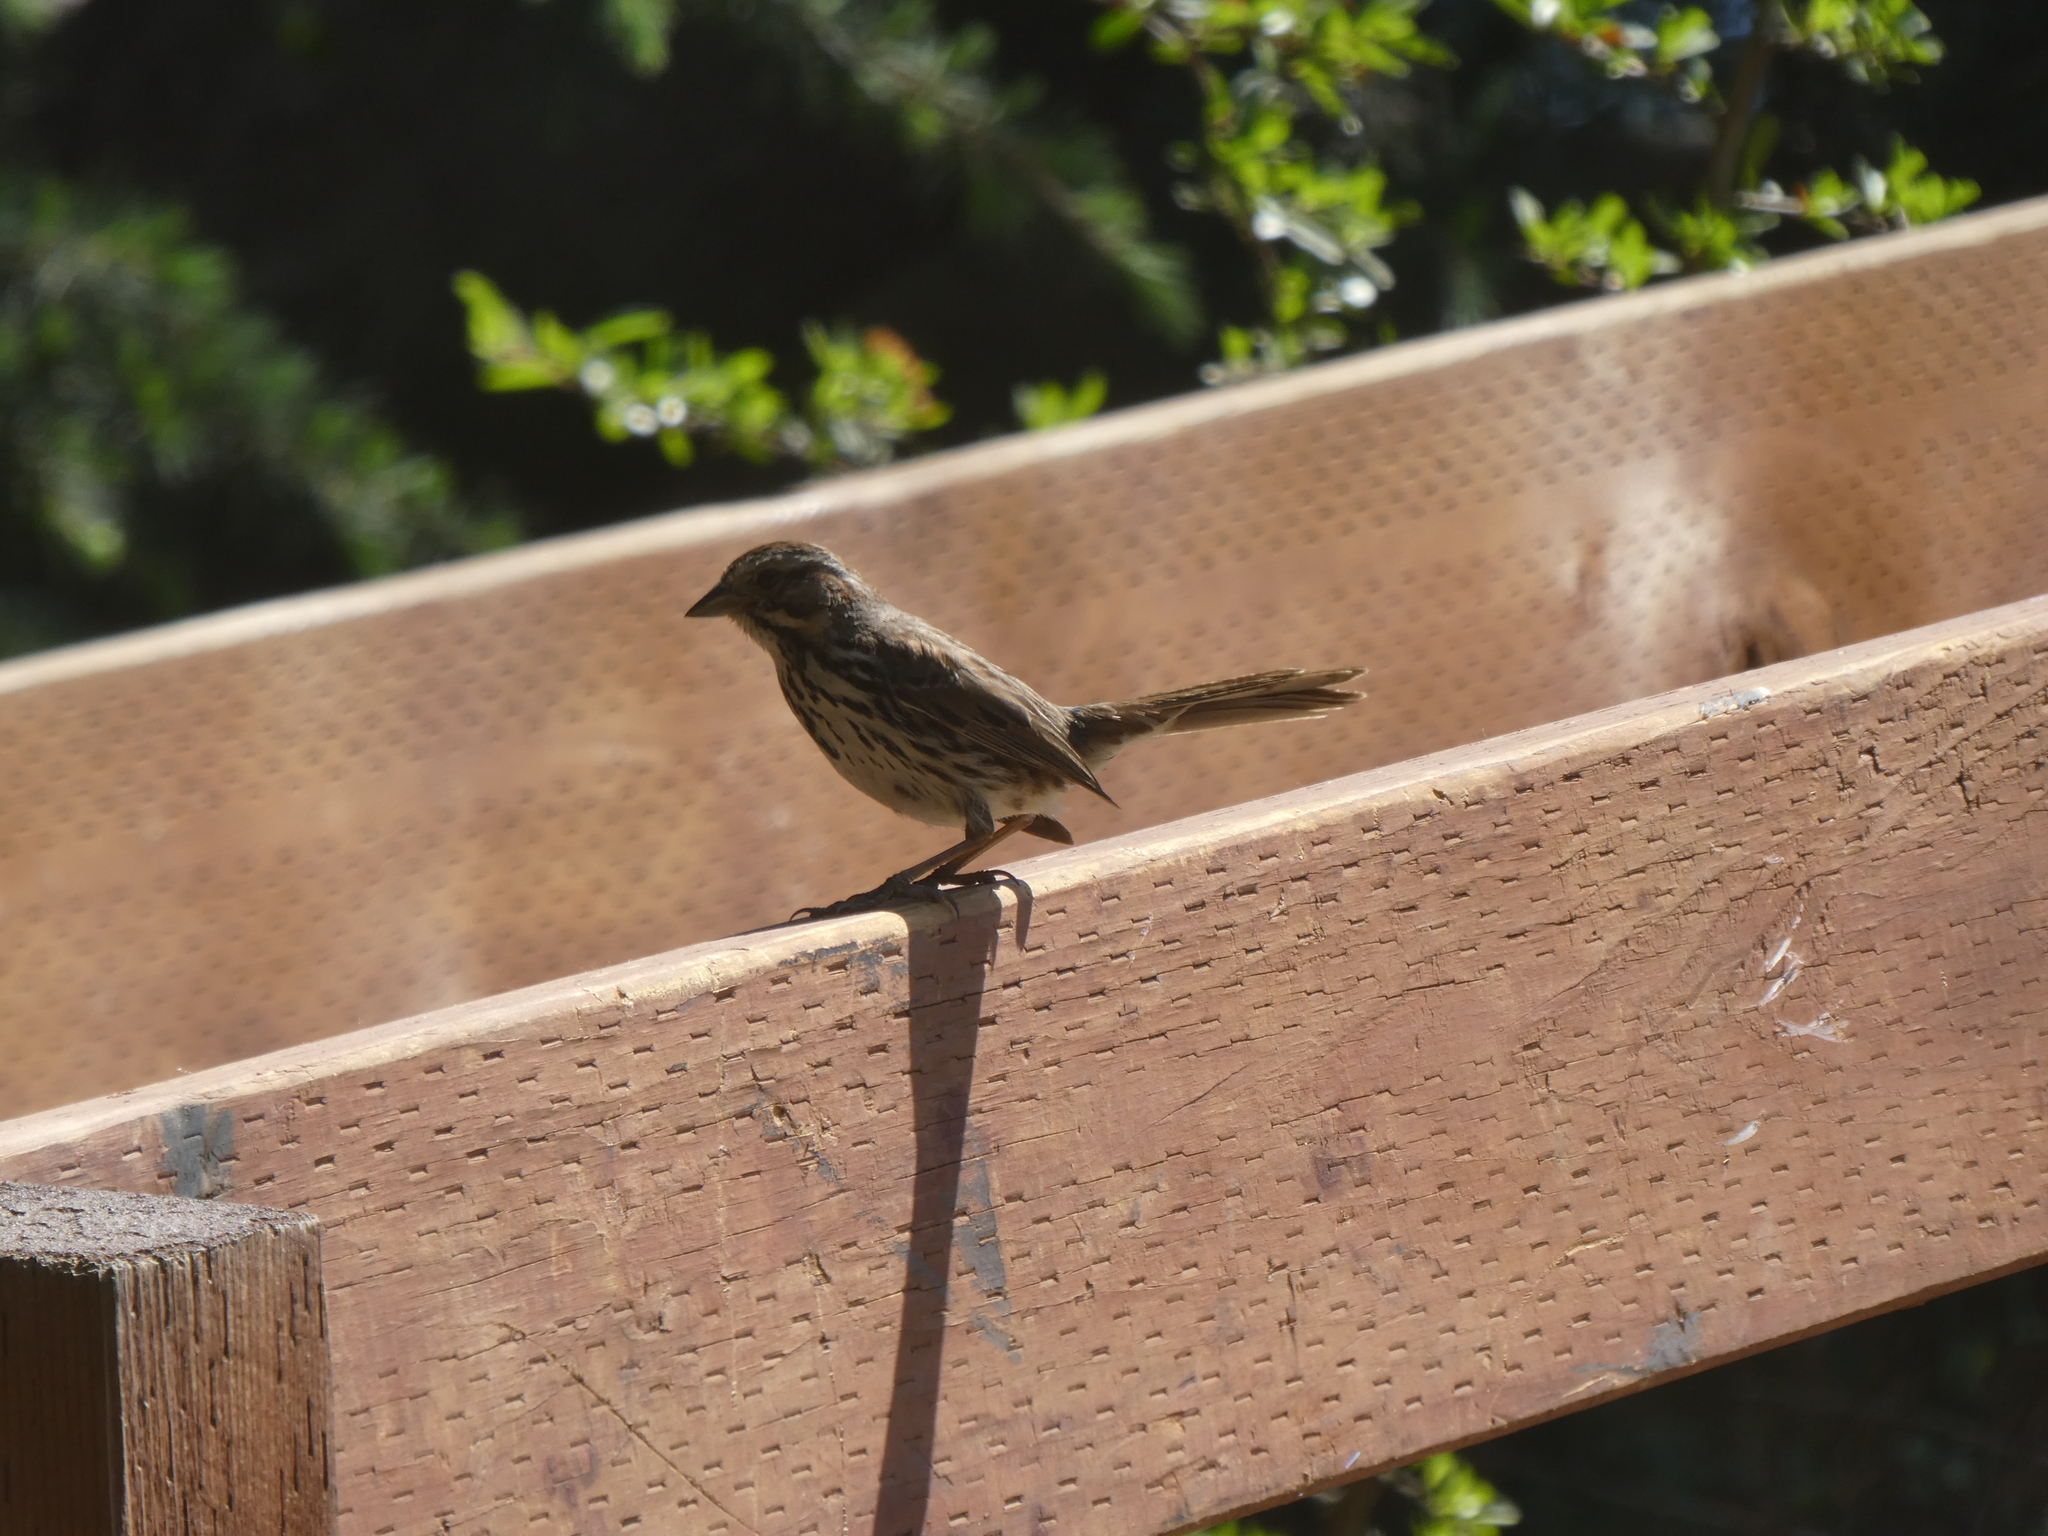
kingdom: Animalia
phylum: Chordata
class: Aves
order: Passeriformes
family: Passerellidae
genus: Melospiza
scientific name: Melospiza melodia
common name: Song sparrow
